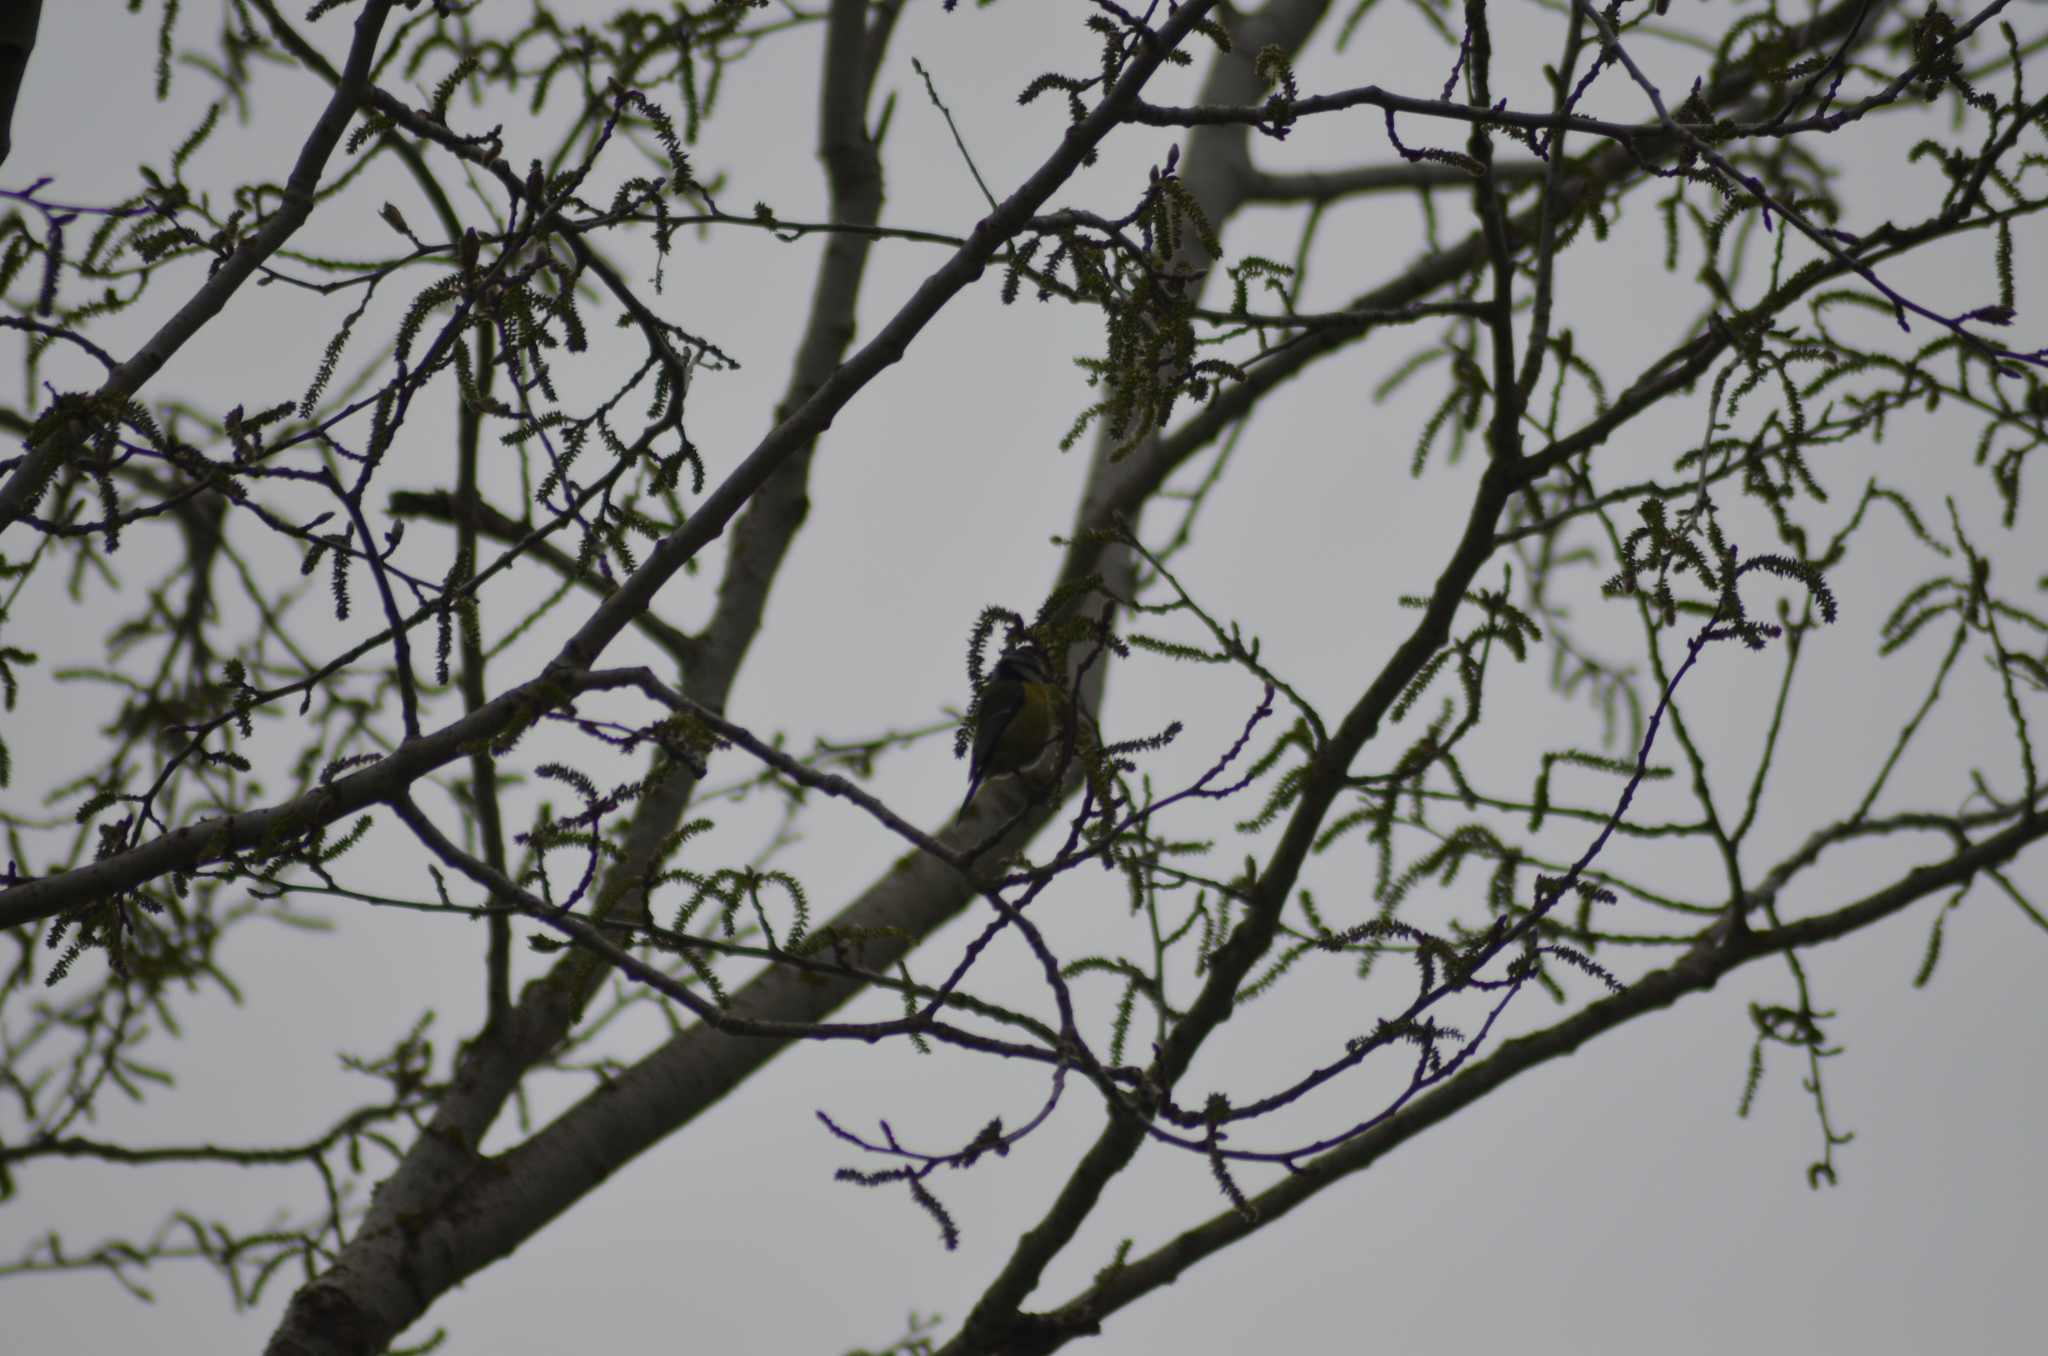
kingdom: Animalia
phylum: Chordata
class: Aves
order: Passeriformes
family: Paridae
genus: Cyanistes
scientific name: Cyanistes caeruleus
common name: Eurasian blue tit
